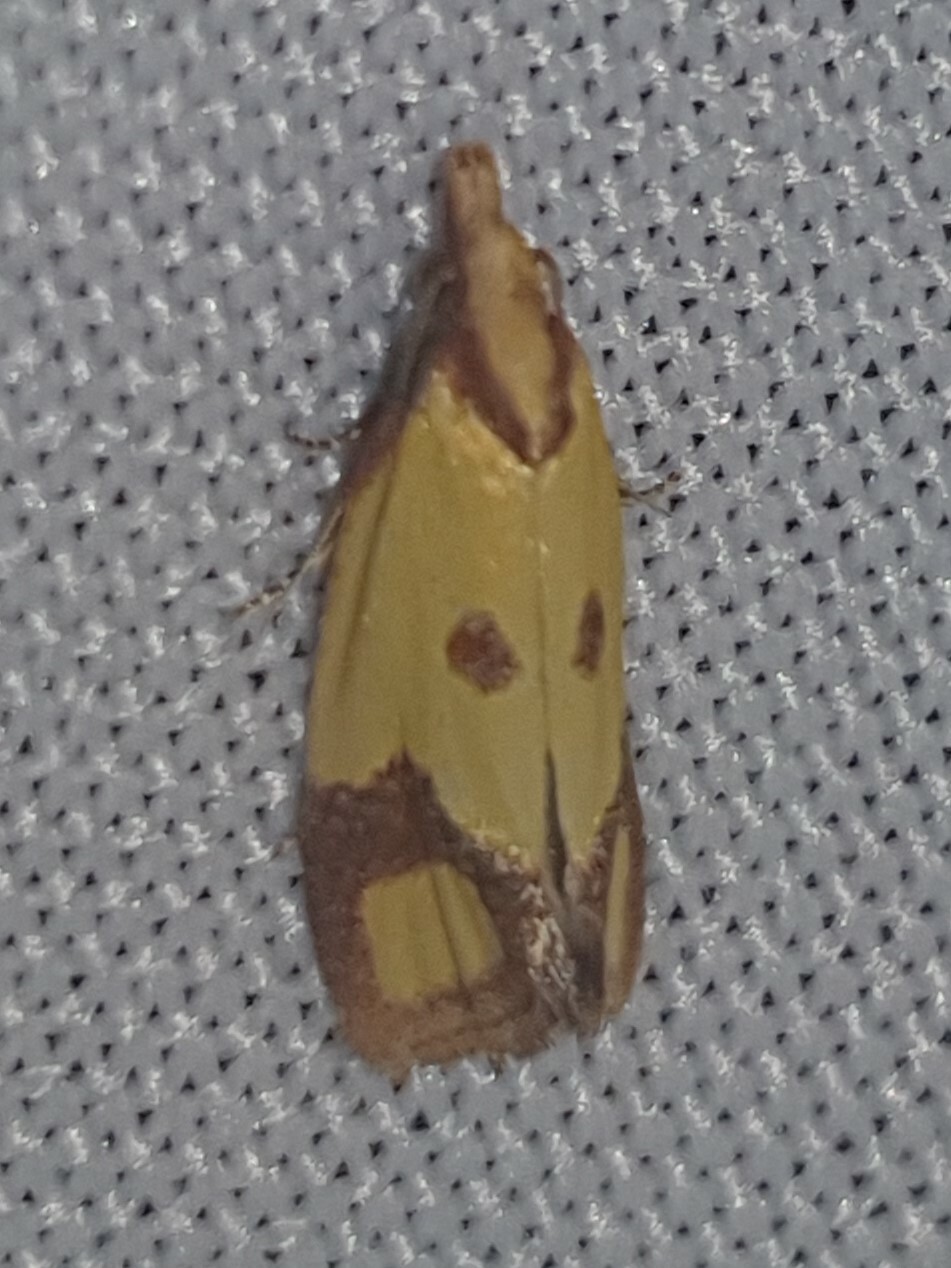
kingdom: Animalia
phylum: Arthropoda
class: Insecta
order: Lepidoptera
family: Tortricidae
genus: Agapeta
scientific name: Agapeta zoegana
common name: Sulfur knapweed root moth
